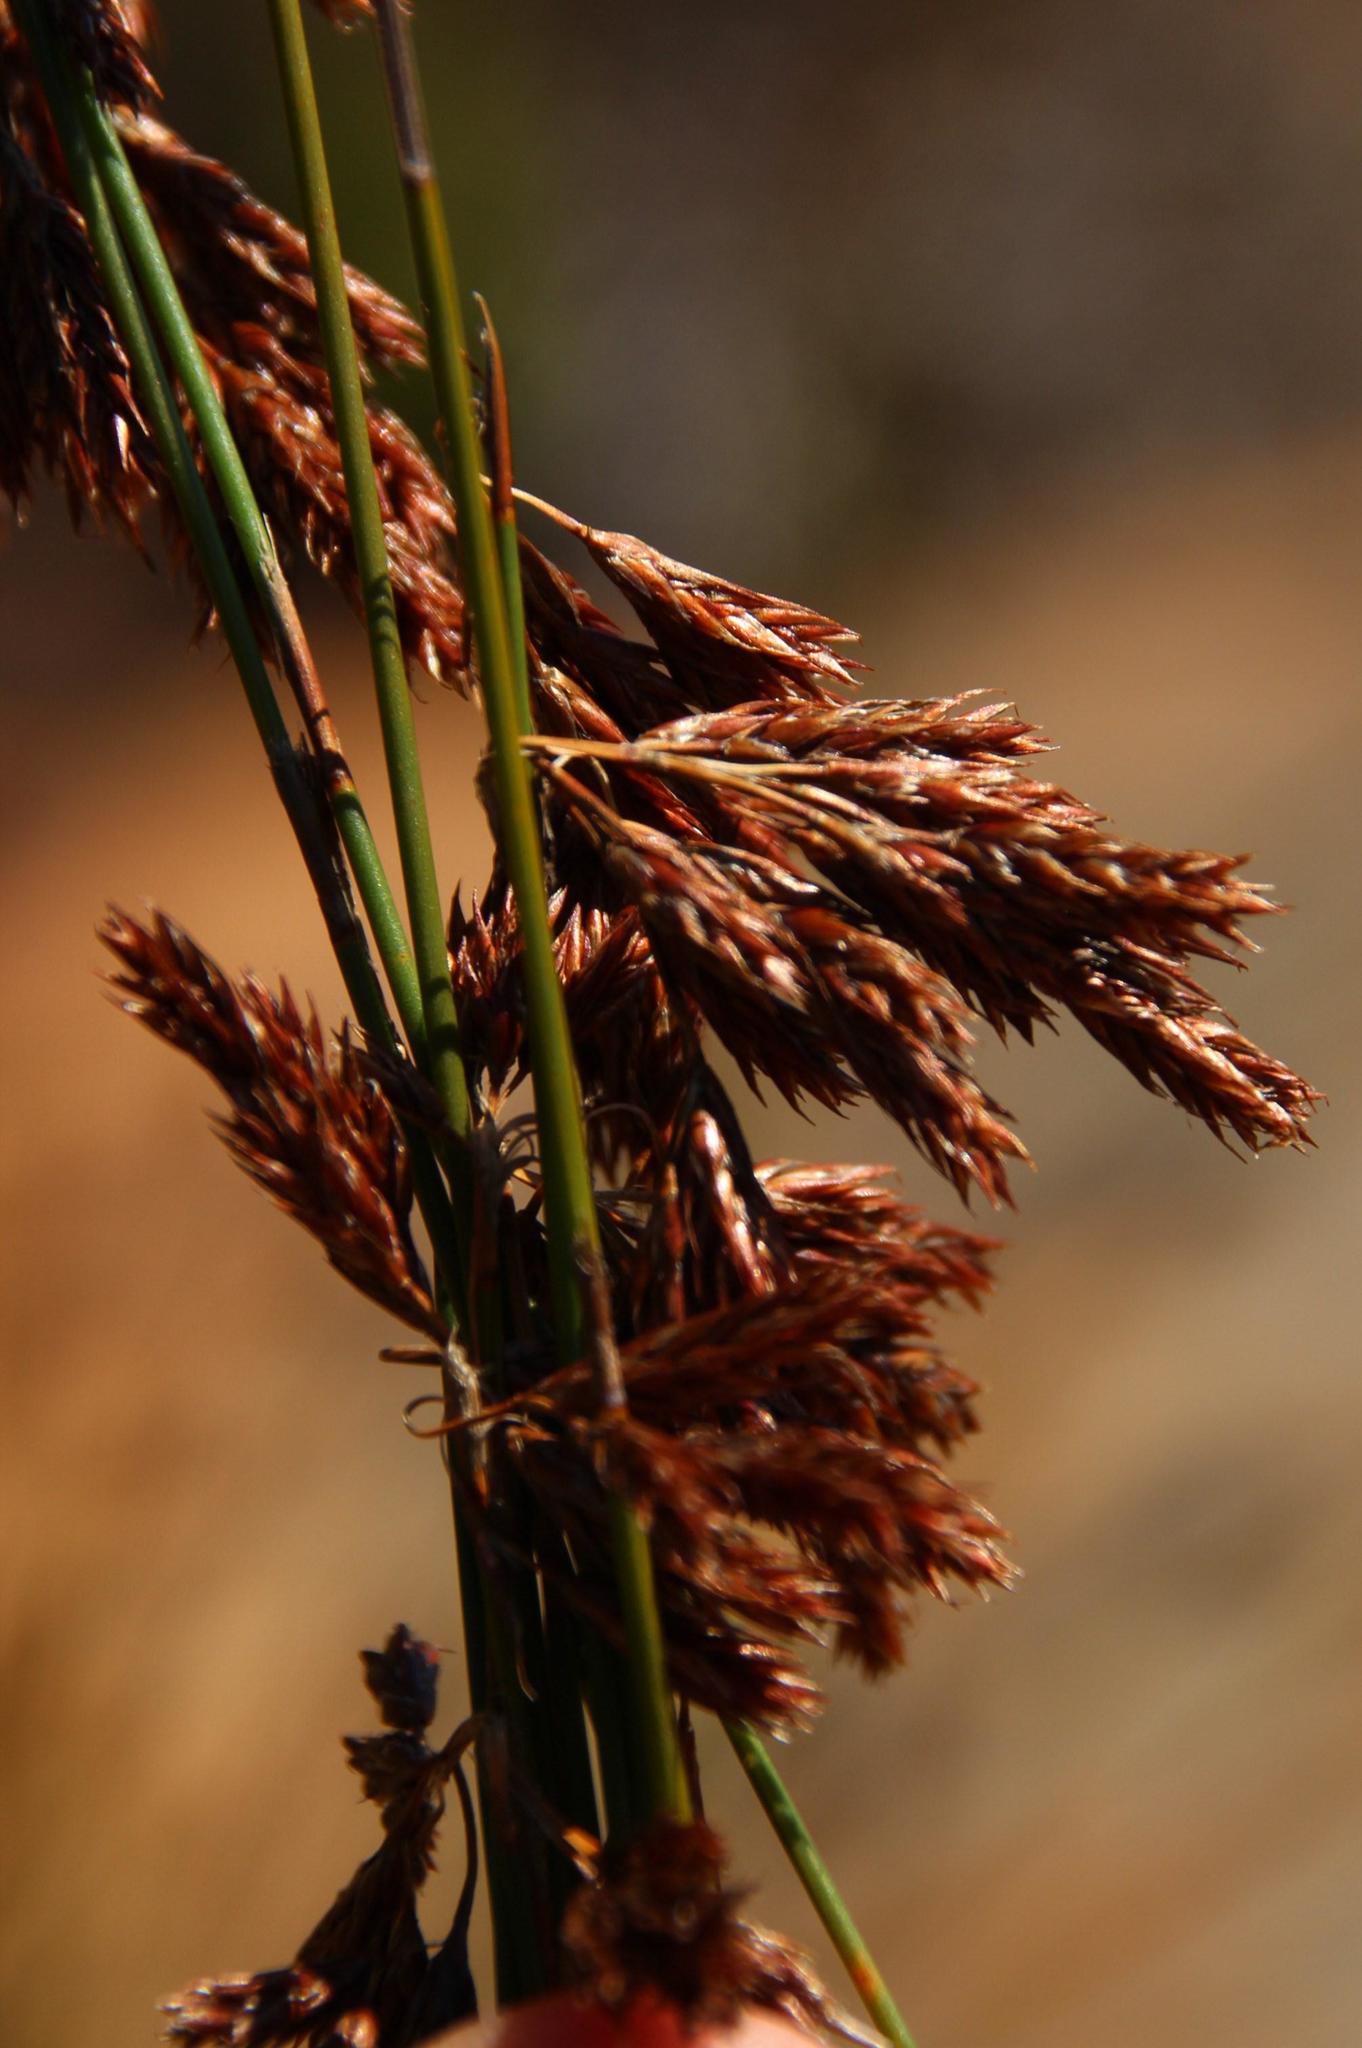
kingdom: Plantae
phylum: Tracheophyta
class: Liliopsida
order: Poales
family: Restionaceae
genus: Thamnochortus
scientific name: Thamnochortus lucens
